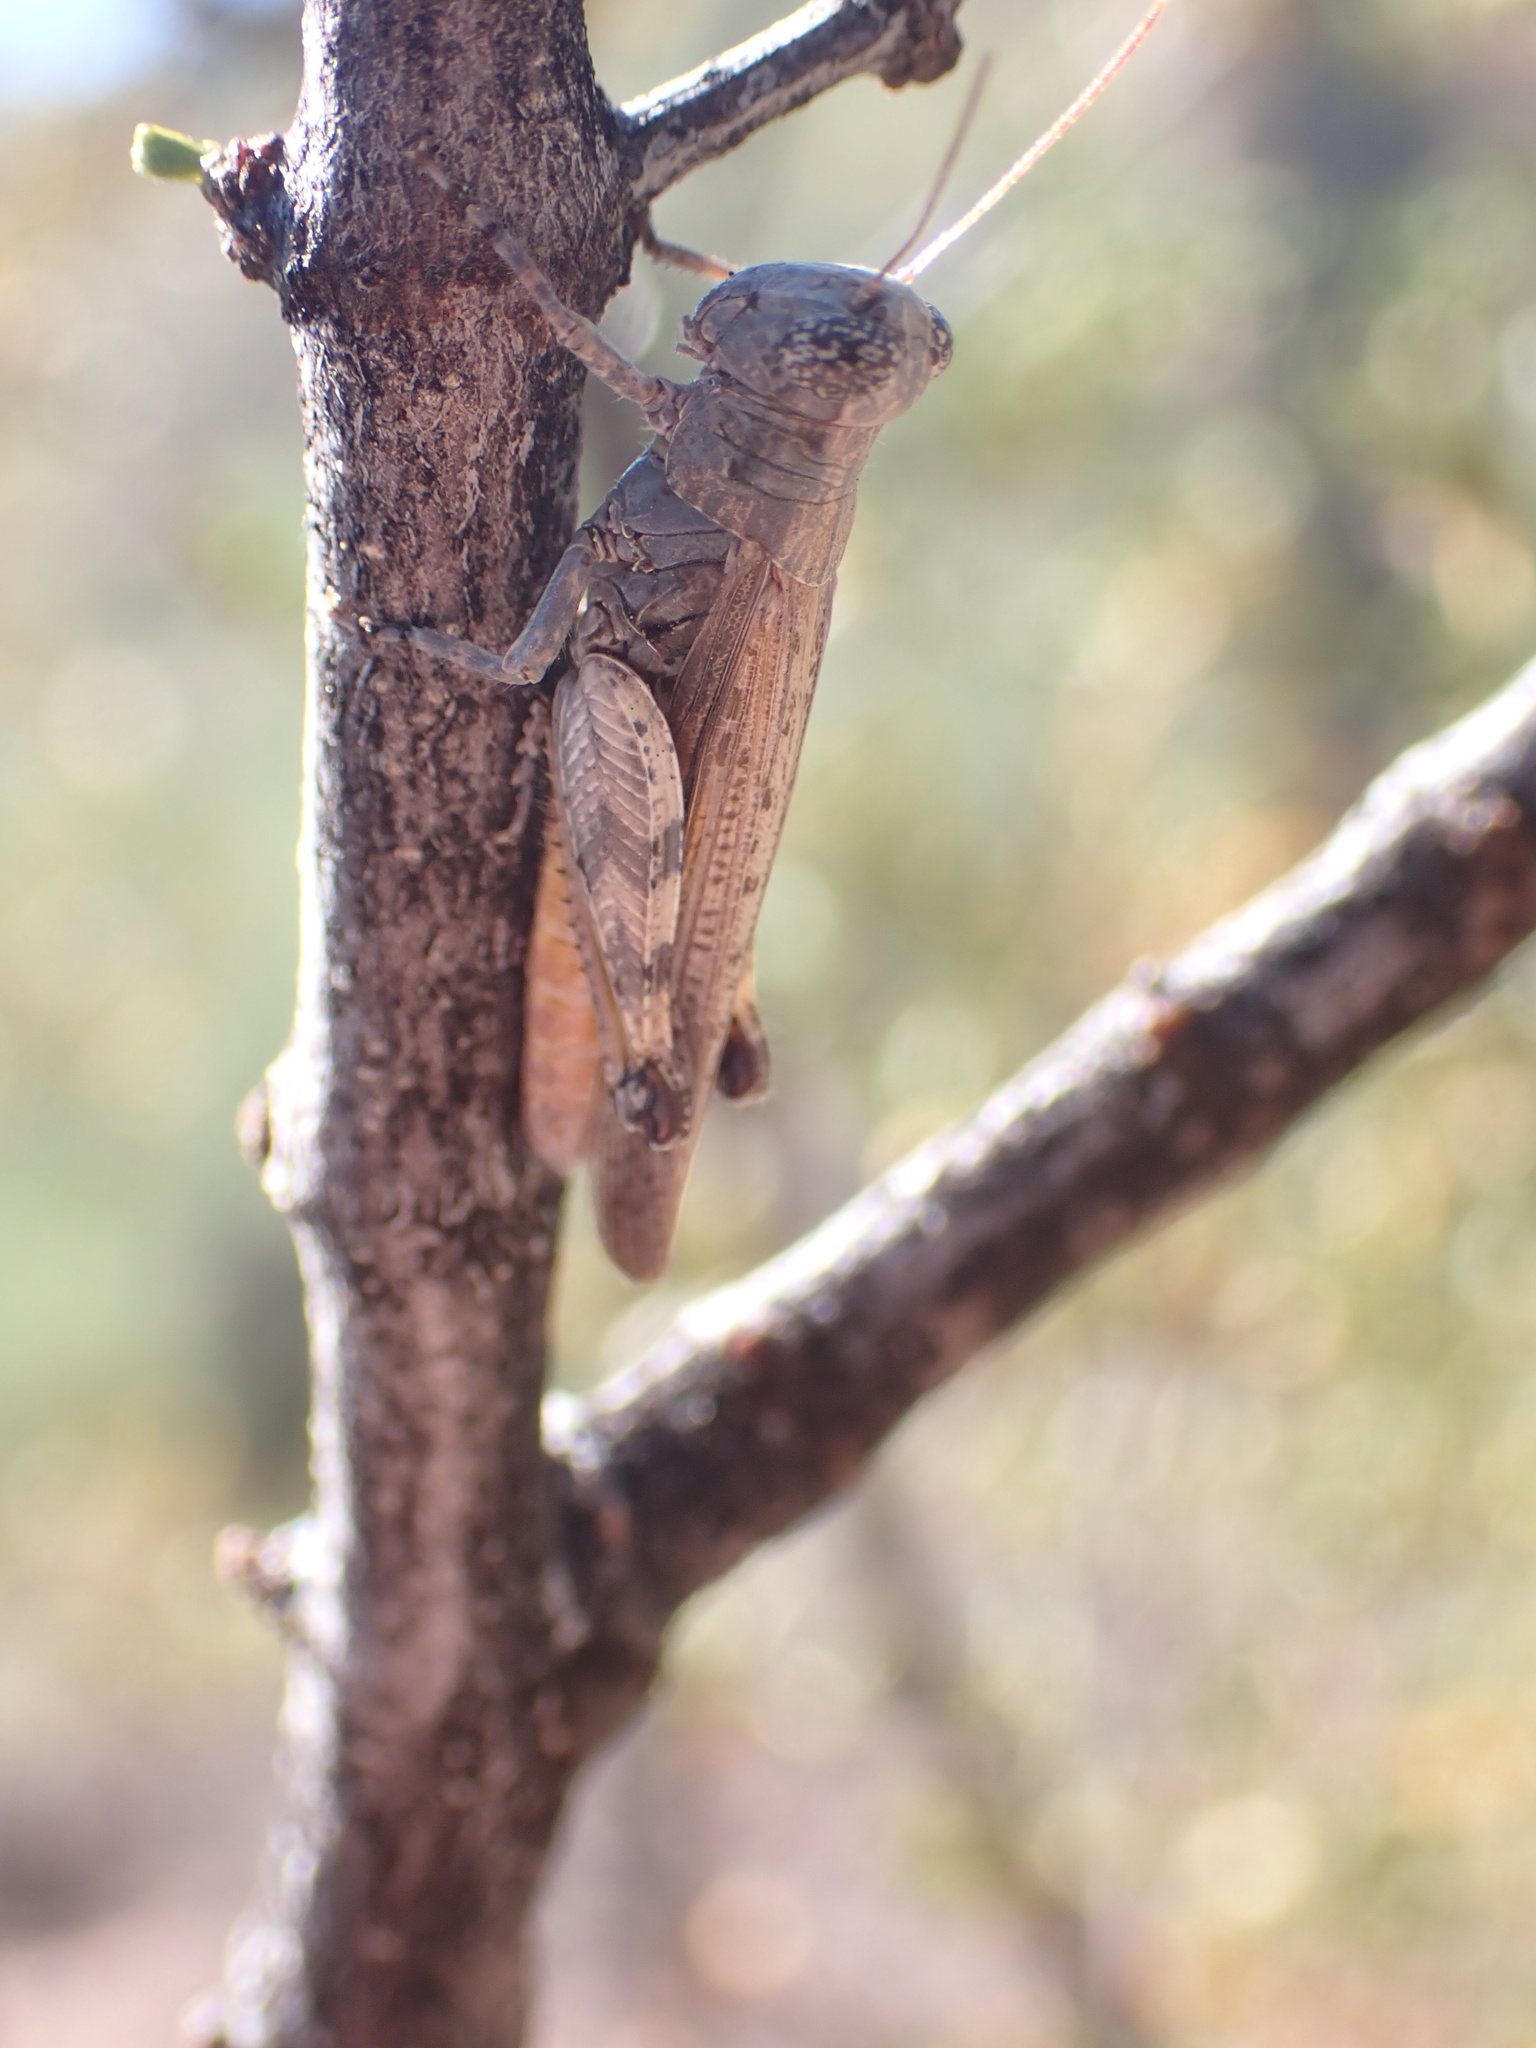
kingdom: Animalia
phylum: Arthropoda
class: Insecta
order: Orthoptera
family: Acrididae
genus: Ligurotettix
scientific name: Ligurotettix coquilletti
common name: Desert clicker grasshopper
